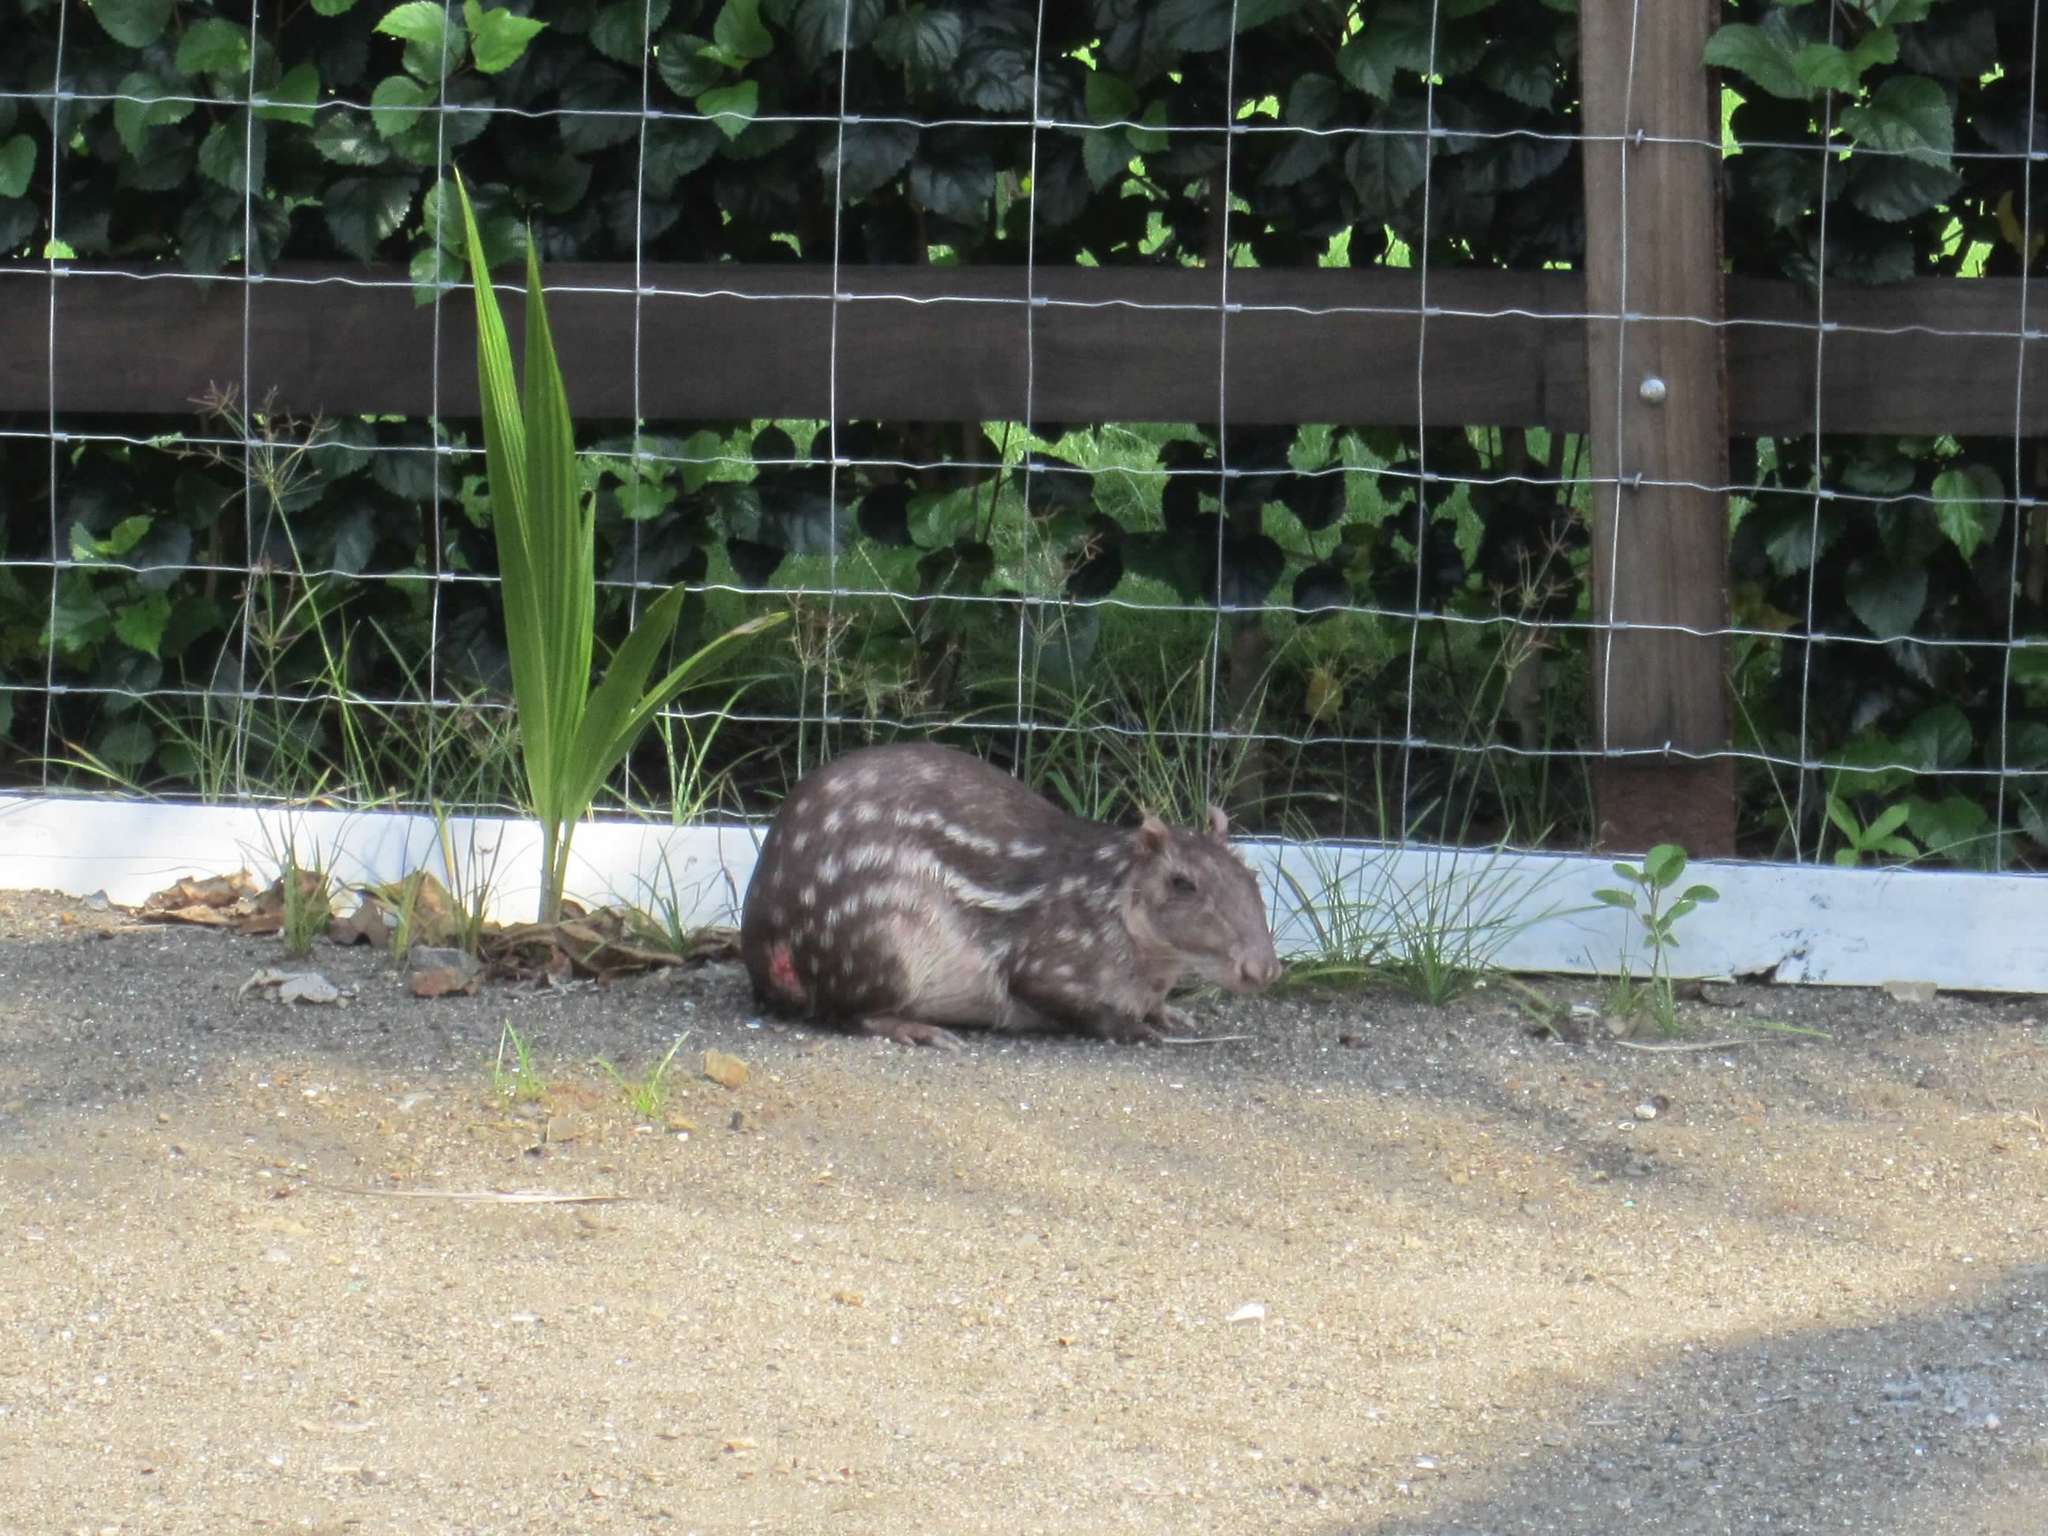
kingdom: Animalia
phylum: Chordata
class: Mammalia
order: Rodentia
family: Cuniculidae
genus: Cuniculus
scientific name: Cuniculus paca
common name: Lowland paca
